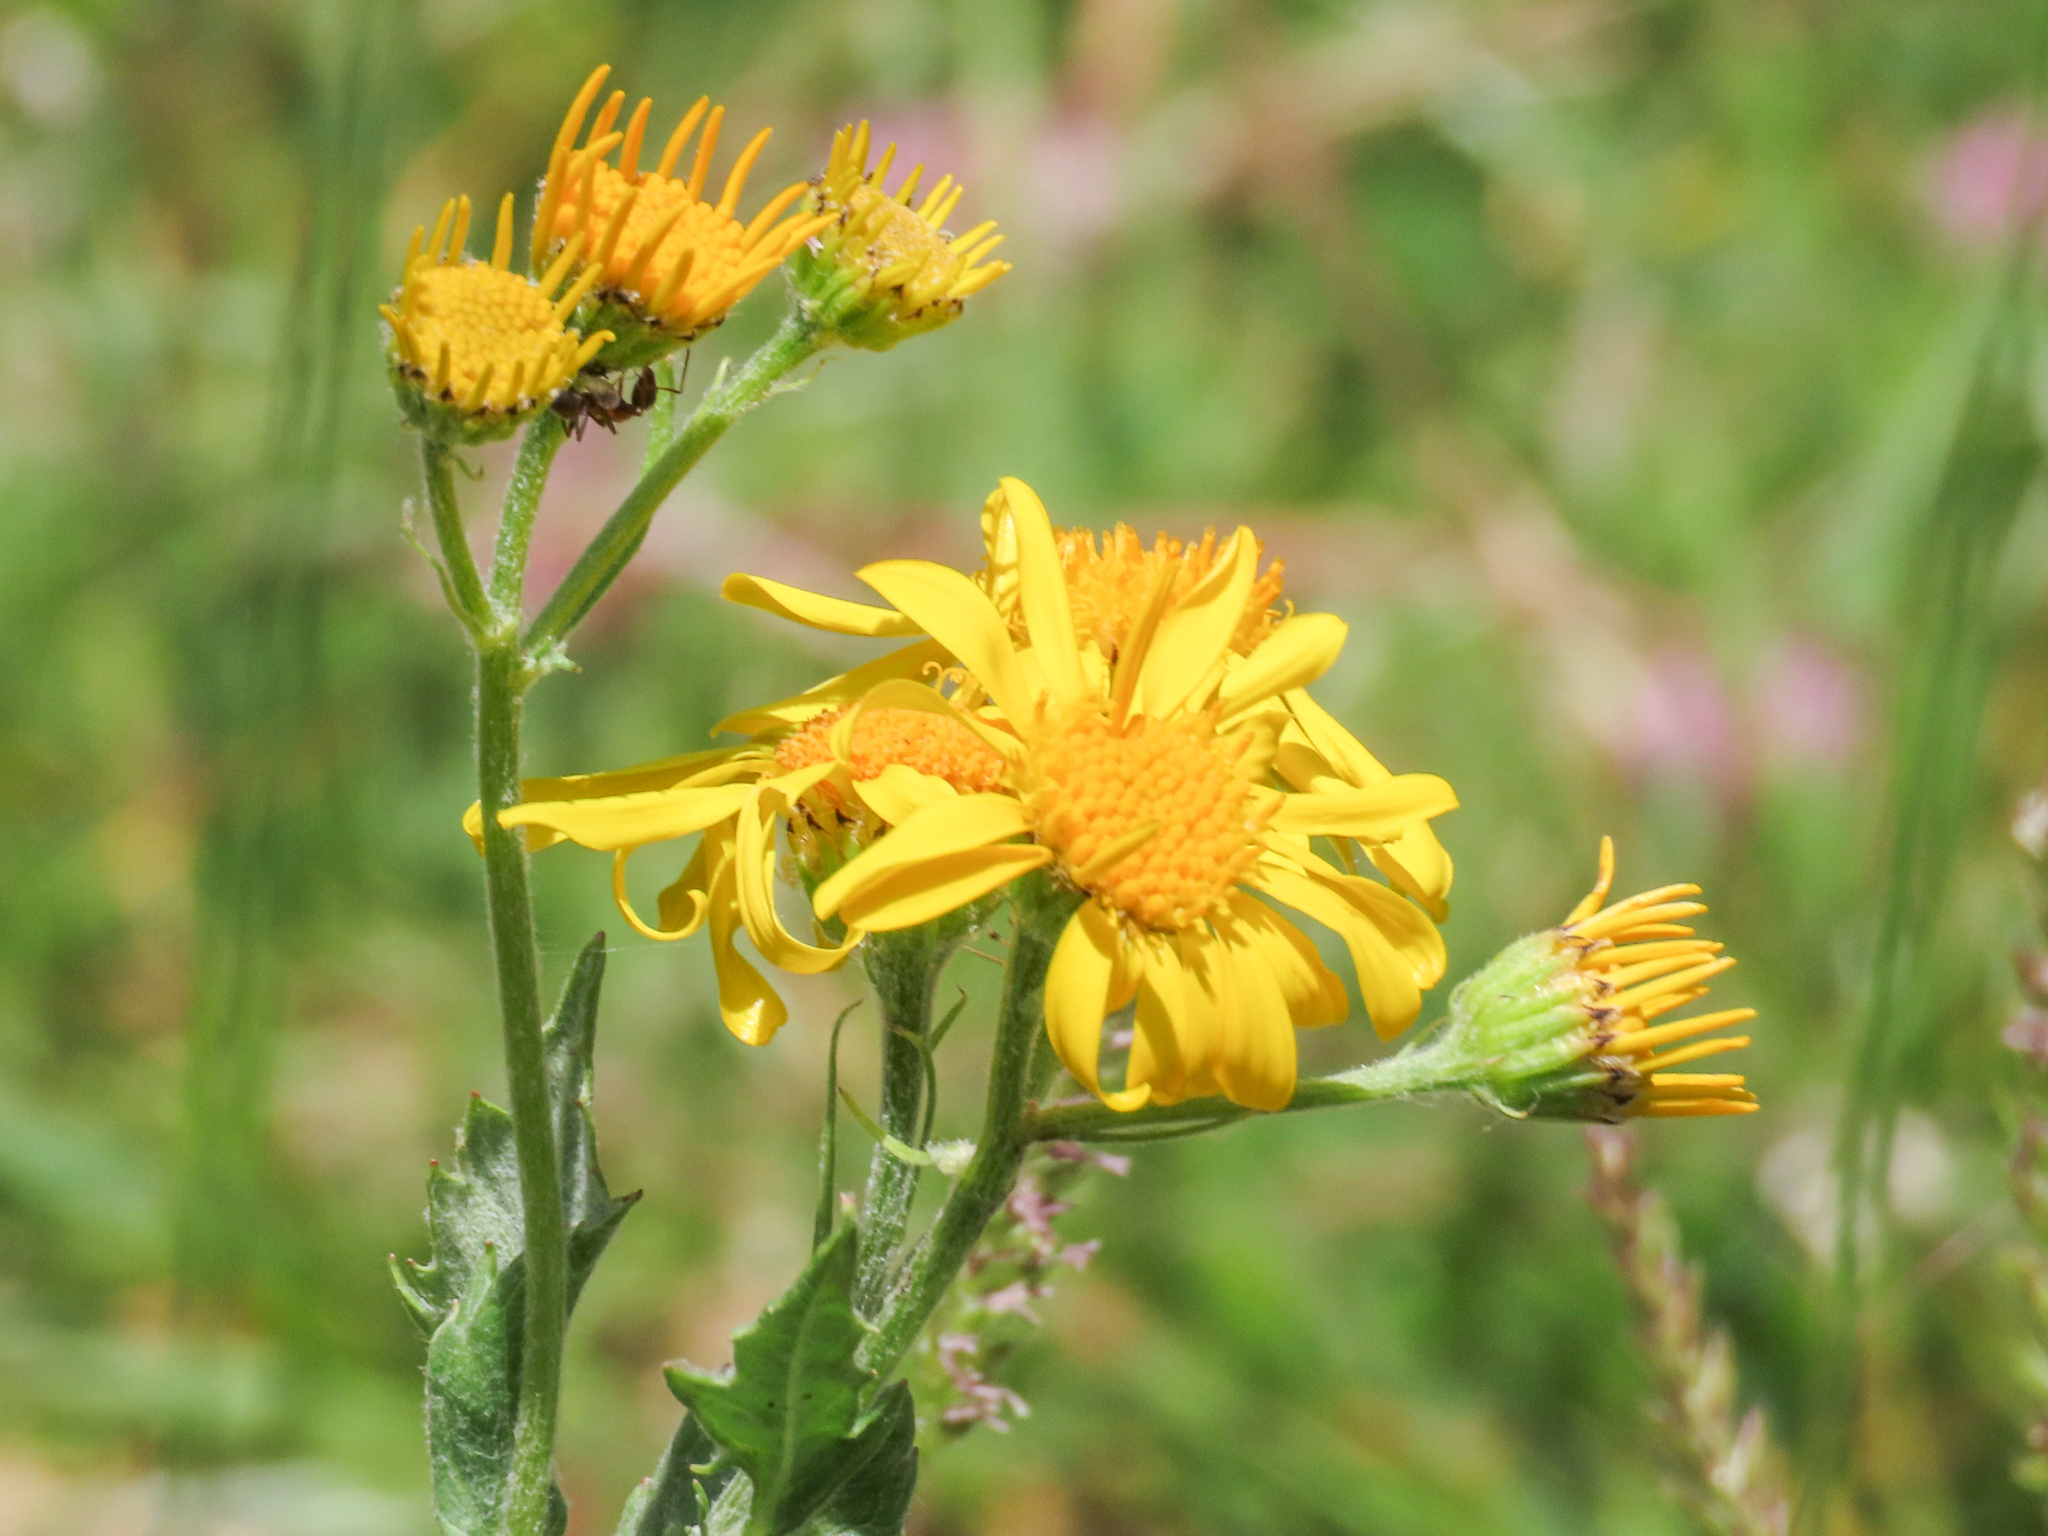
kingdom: Plantae
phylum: Tracheophyta
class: Magnoliopsida
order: Asterales
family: Asteraceae
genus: Jacobaea
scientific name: Jacobaea alpina
